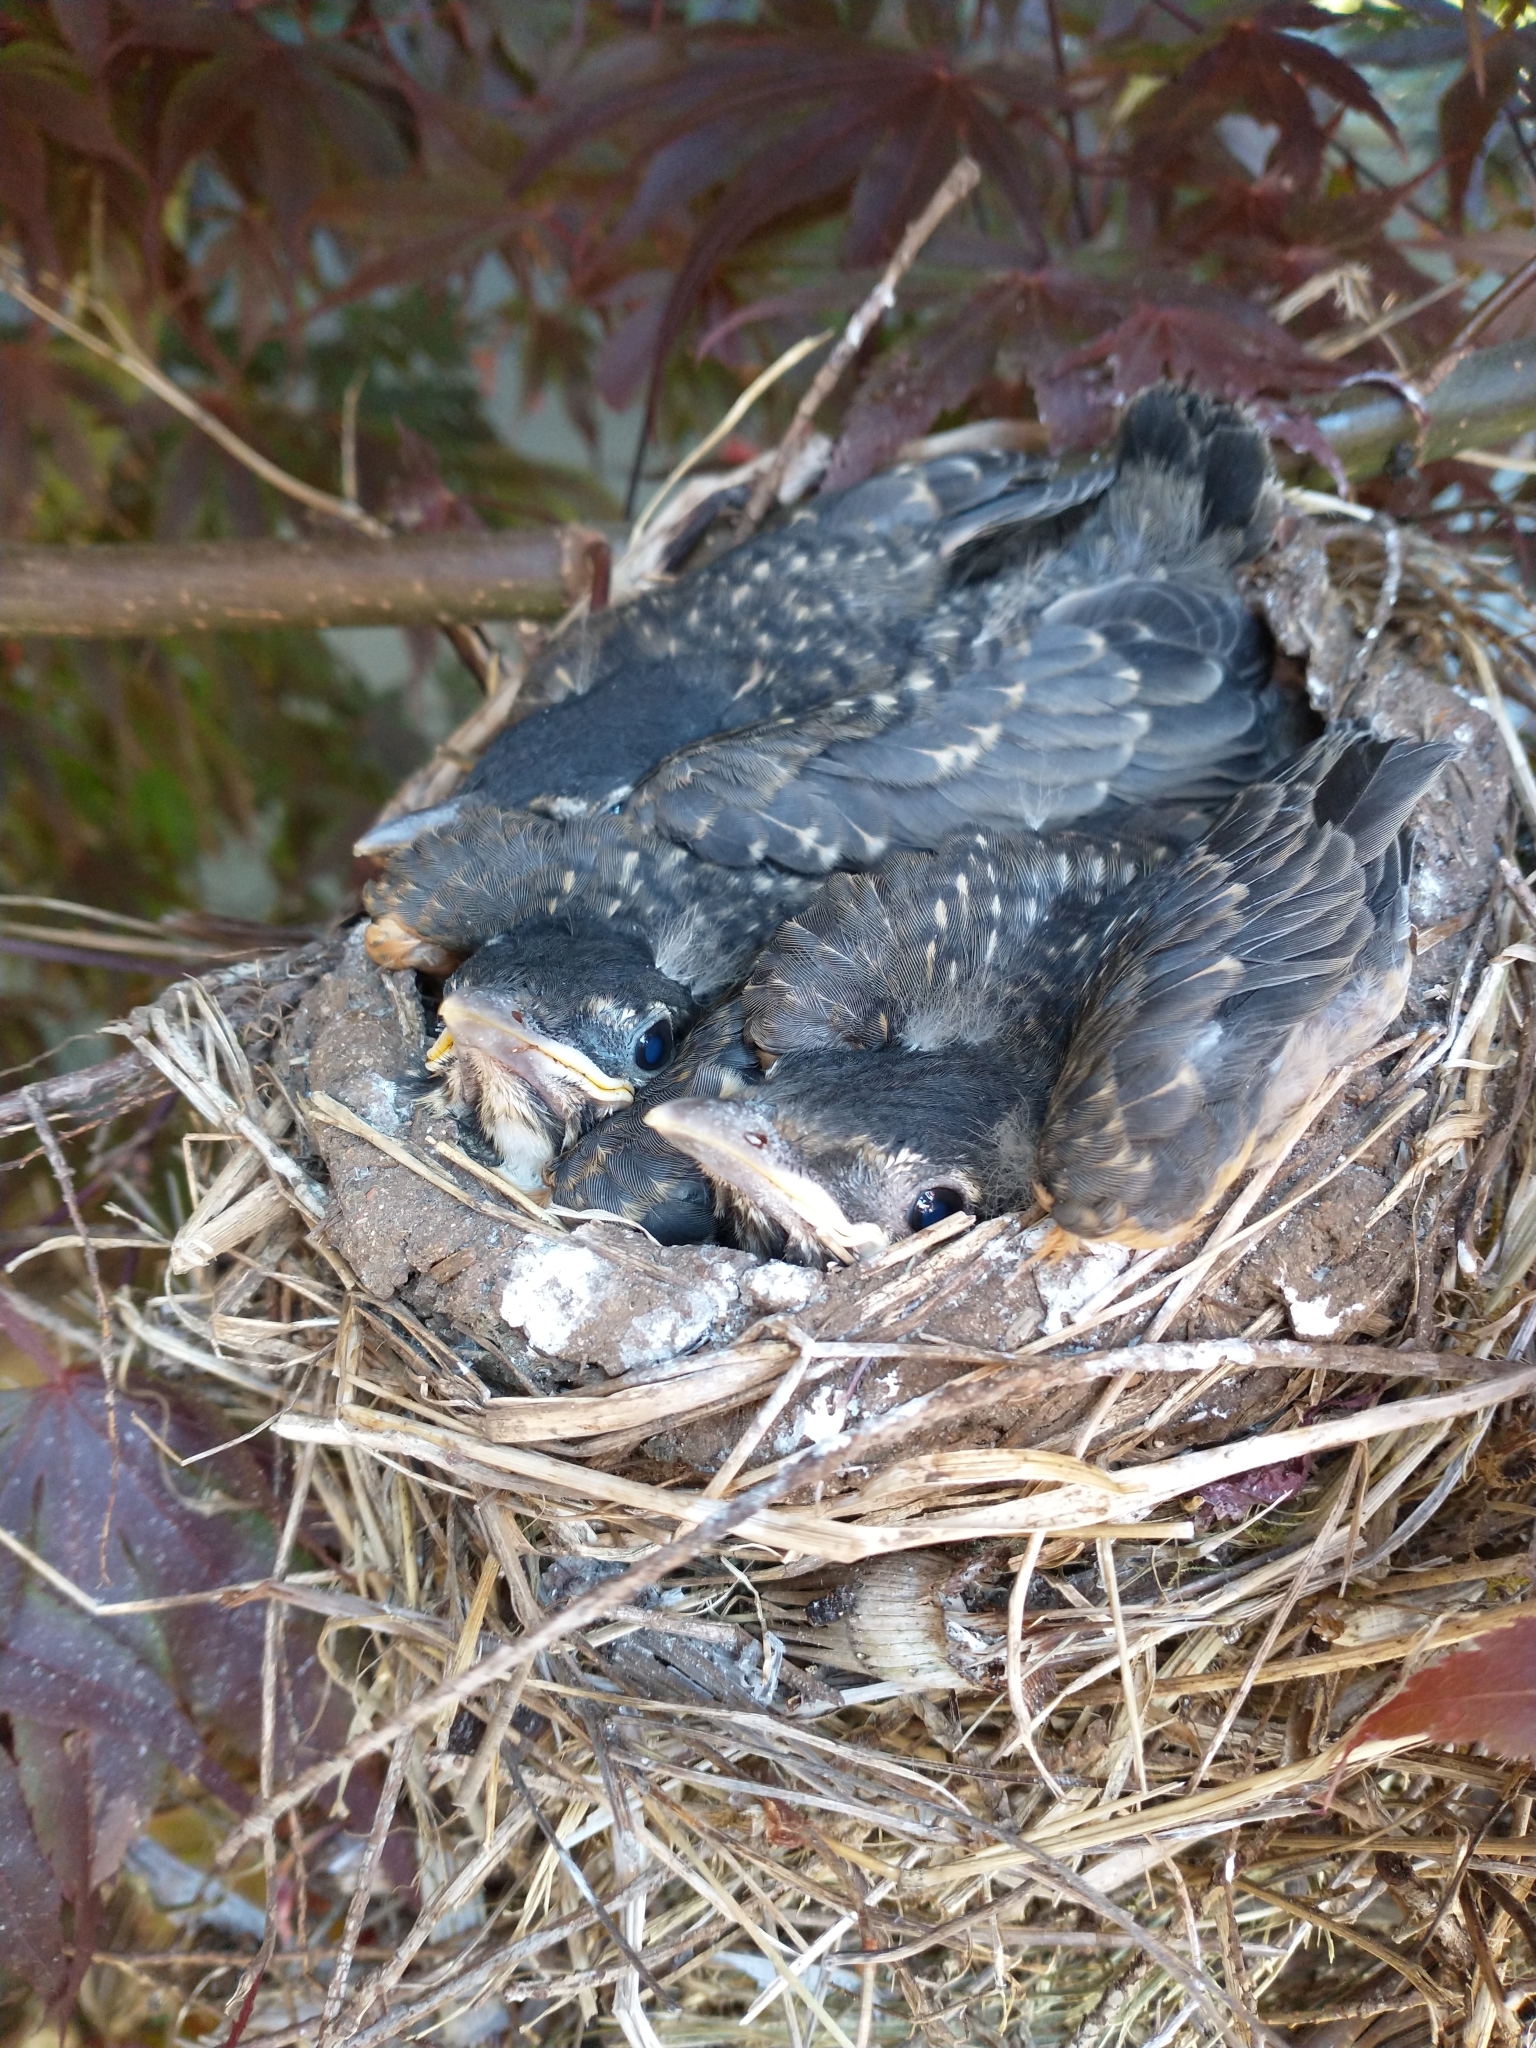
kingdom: Animalia
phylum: Chordata
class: Aves
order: Passeriformes
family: Turdidae
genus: Turdus
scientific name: Turdus migratorius
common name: American robin
